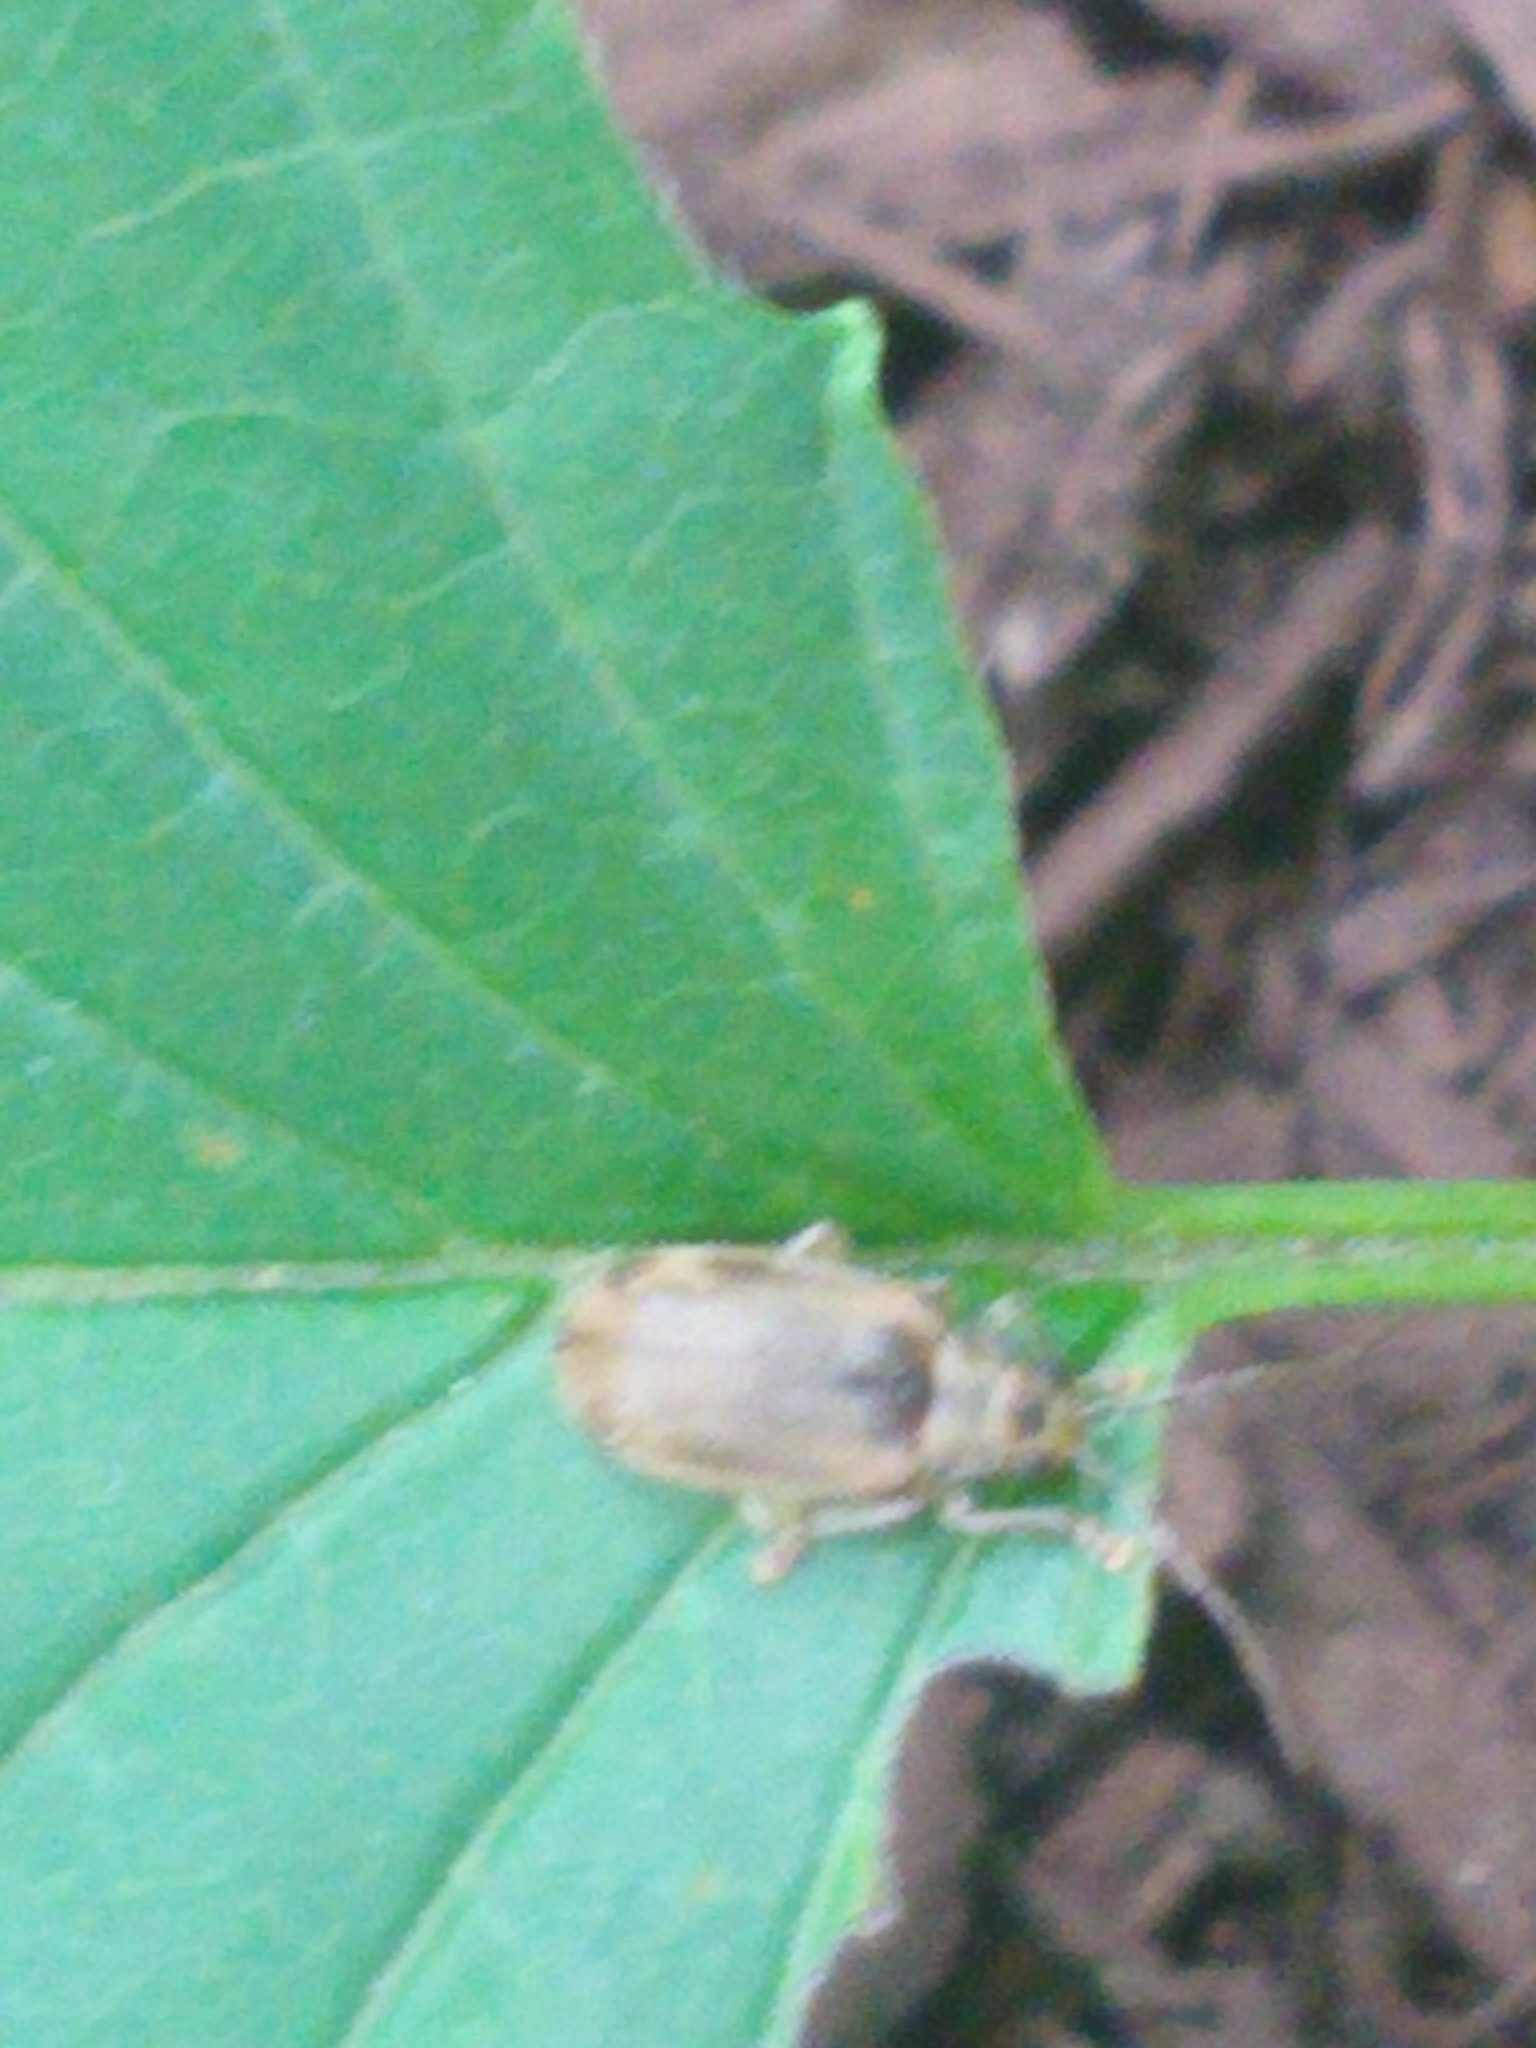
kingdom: Animalia
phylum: Arthropoda
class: Insecta
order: Coleoptera
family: Chrysomelidae
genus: Pyrrhalta
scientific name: Pyrrhalta viburni
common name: Guelder-rose leaf beetle
